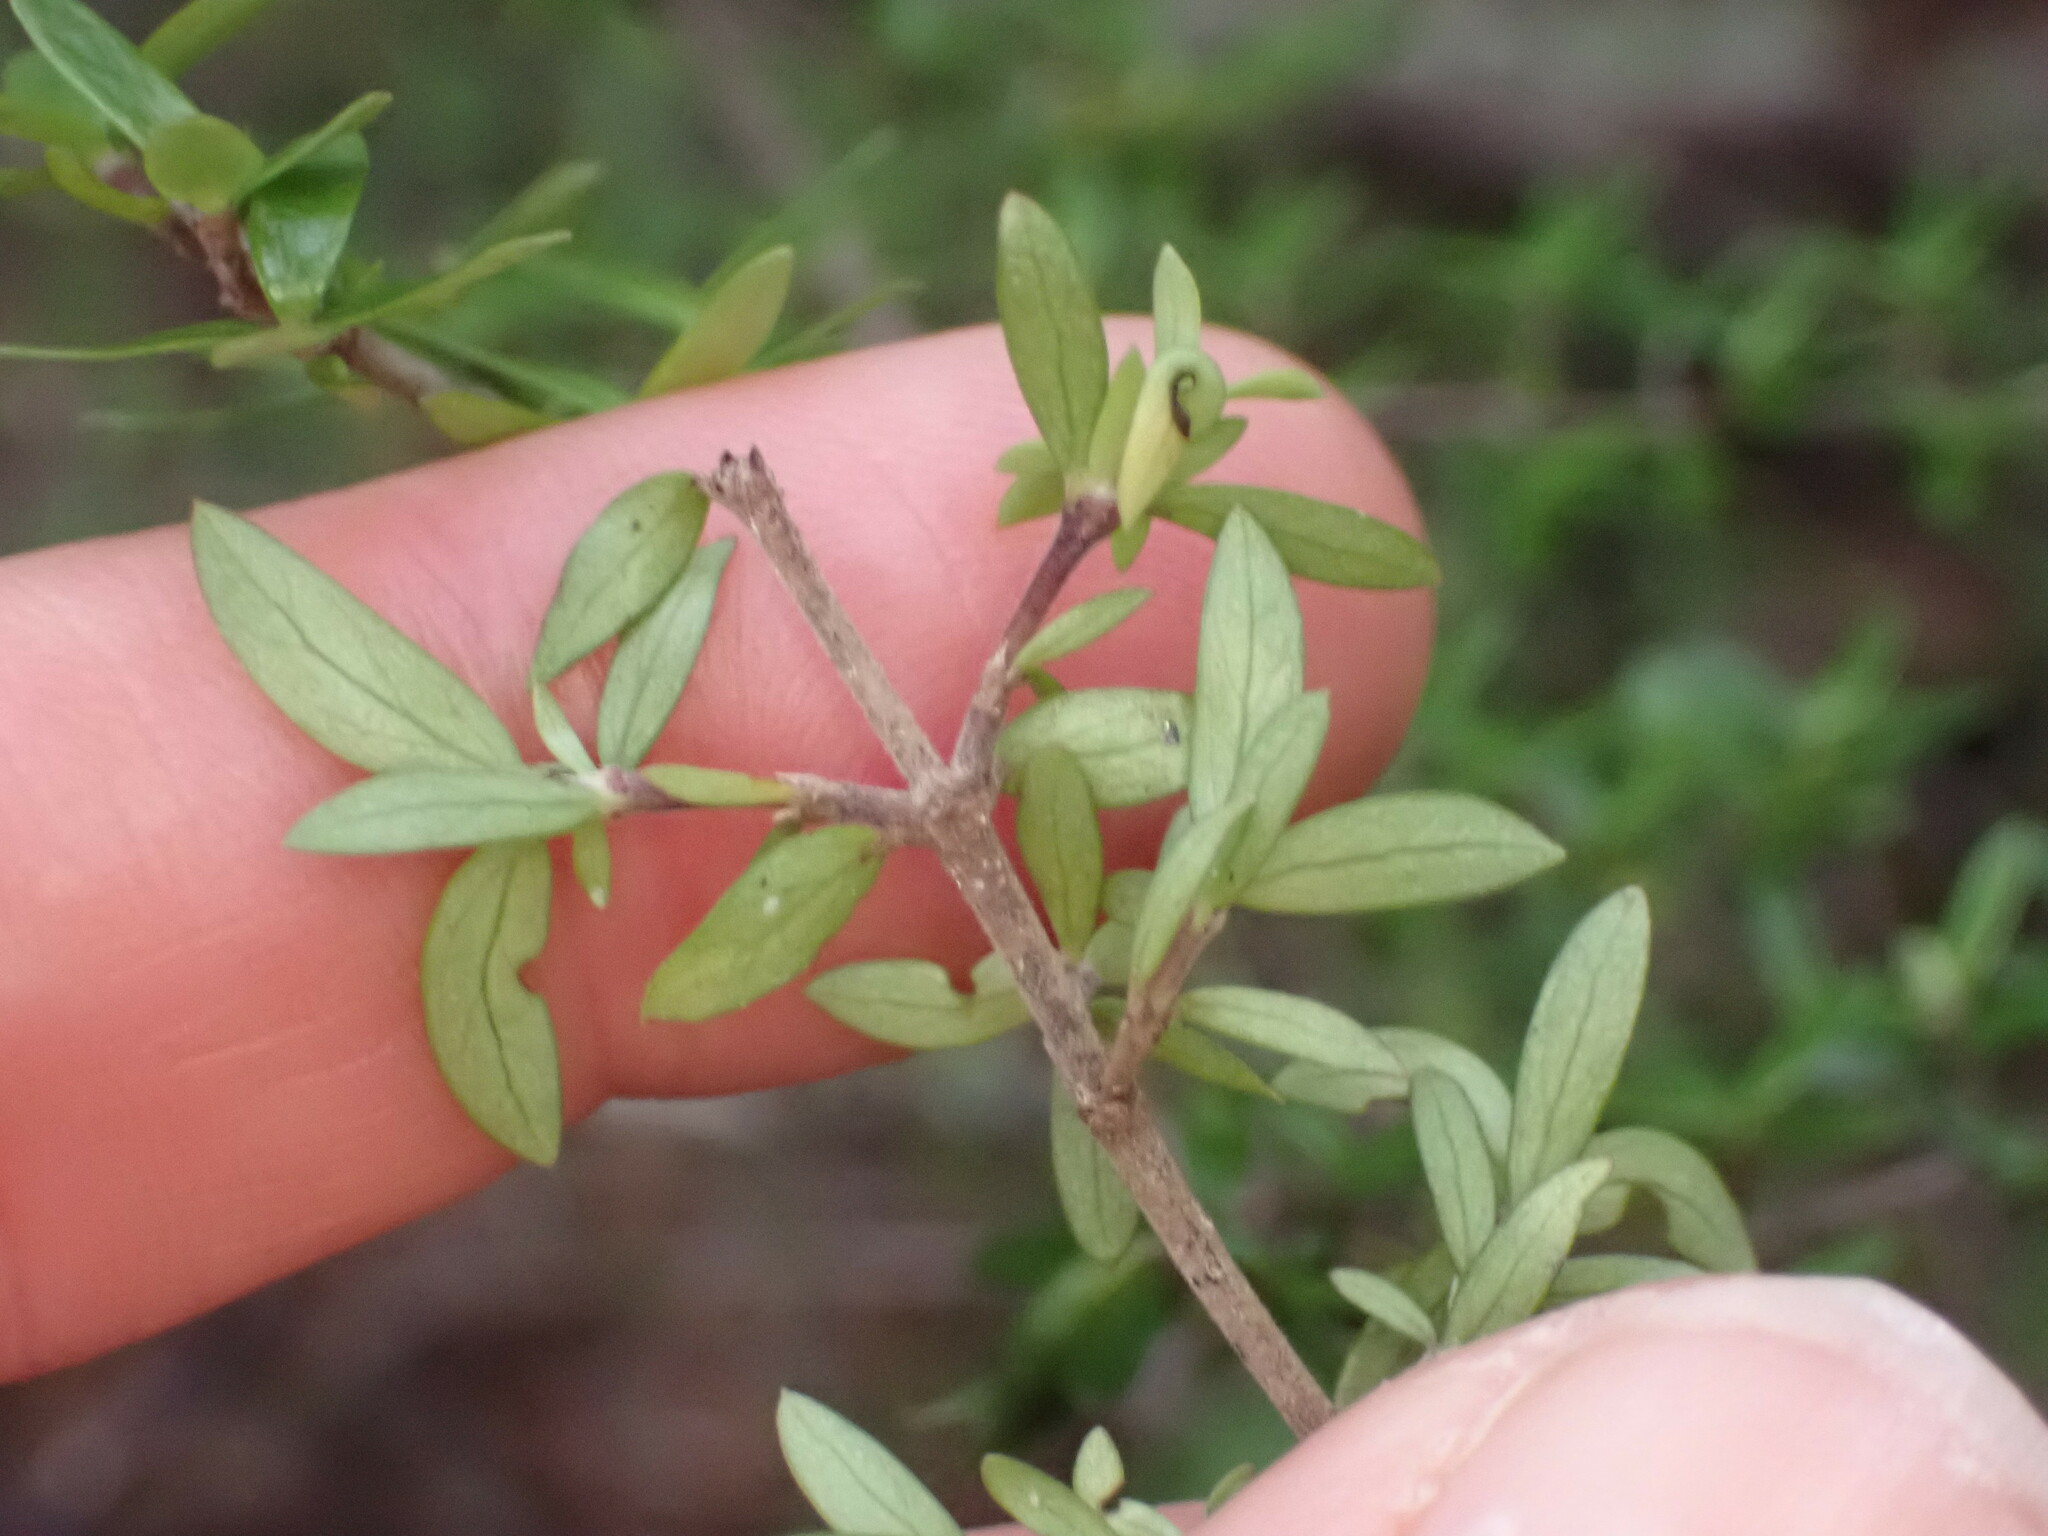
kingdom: Plantae
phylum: Tracheophyta
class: Magnoliopsida
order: Gentianales
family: Rubiaceae
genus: Coprosma
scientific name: Coprosma microcarpa
